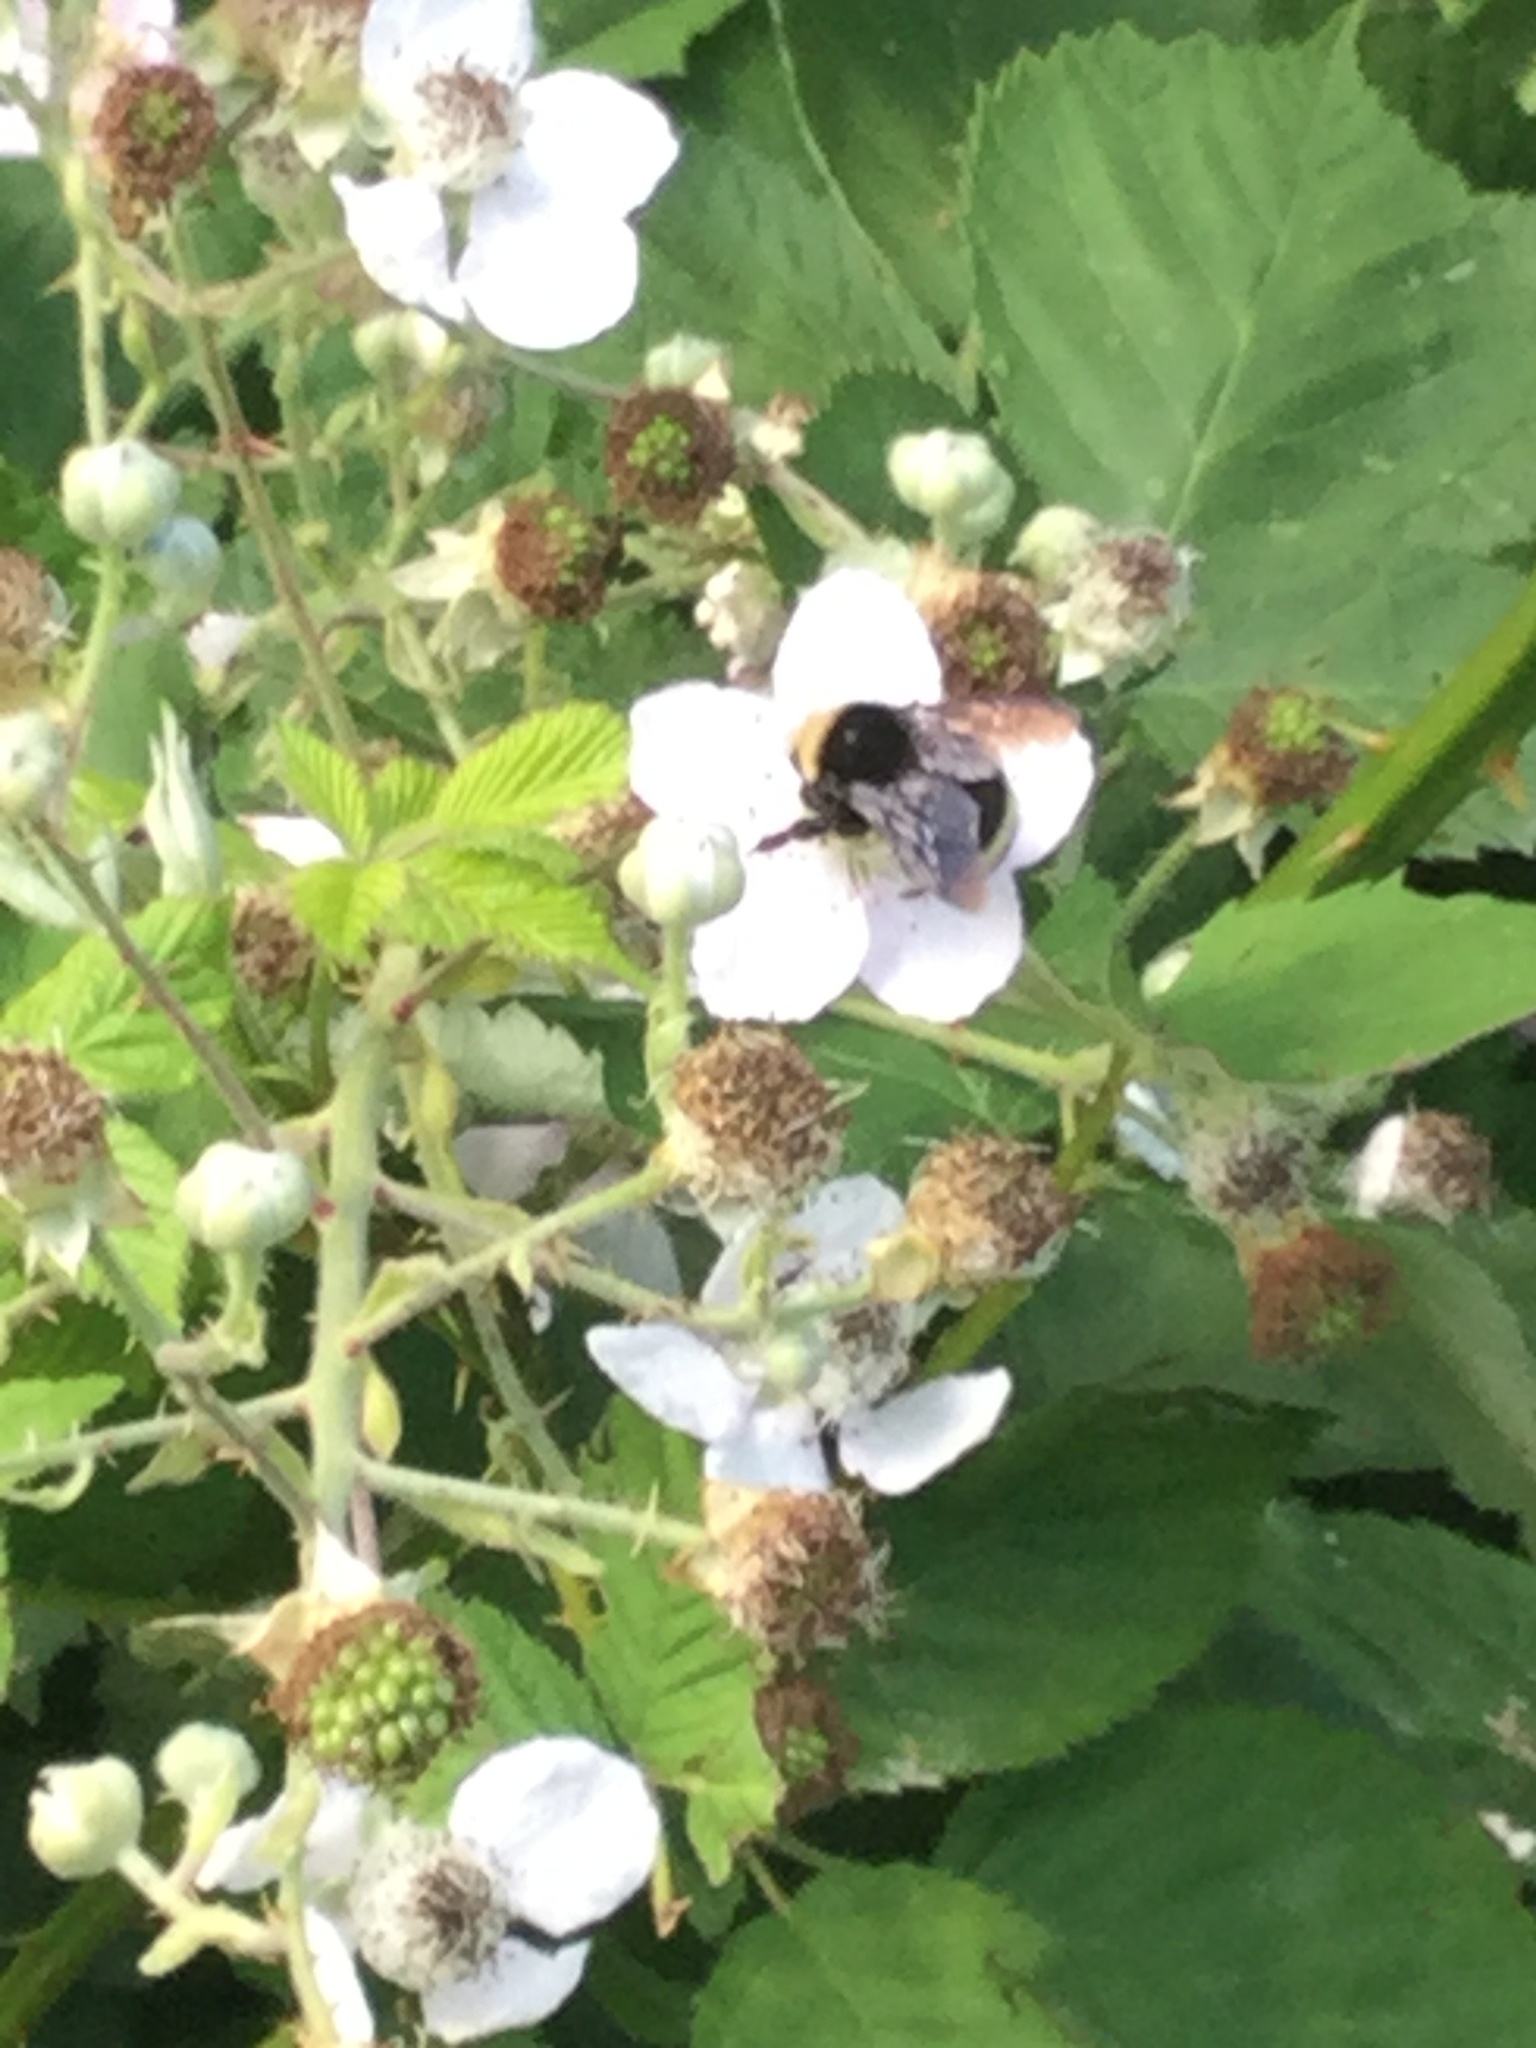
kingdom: Animalia
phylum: Arthropoda
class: Insecta
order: Hymenoptera
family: Apidae
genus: Bombus
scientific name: Bombus vosnesenskii
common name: Vosnesensky bumble bee
